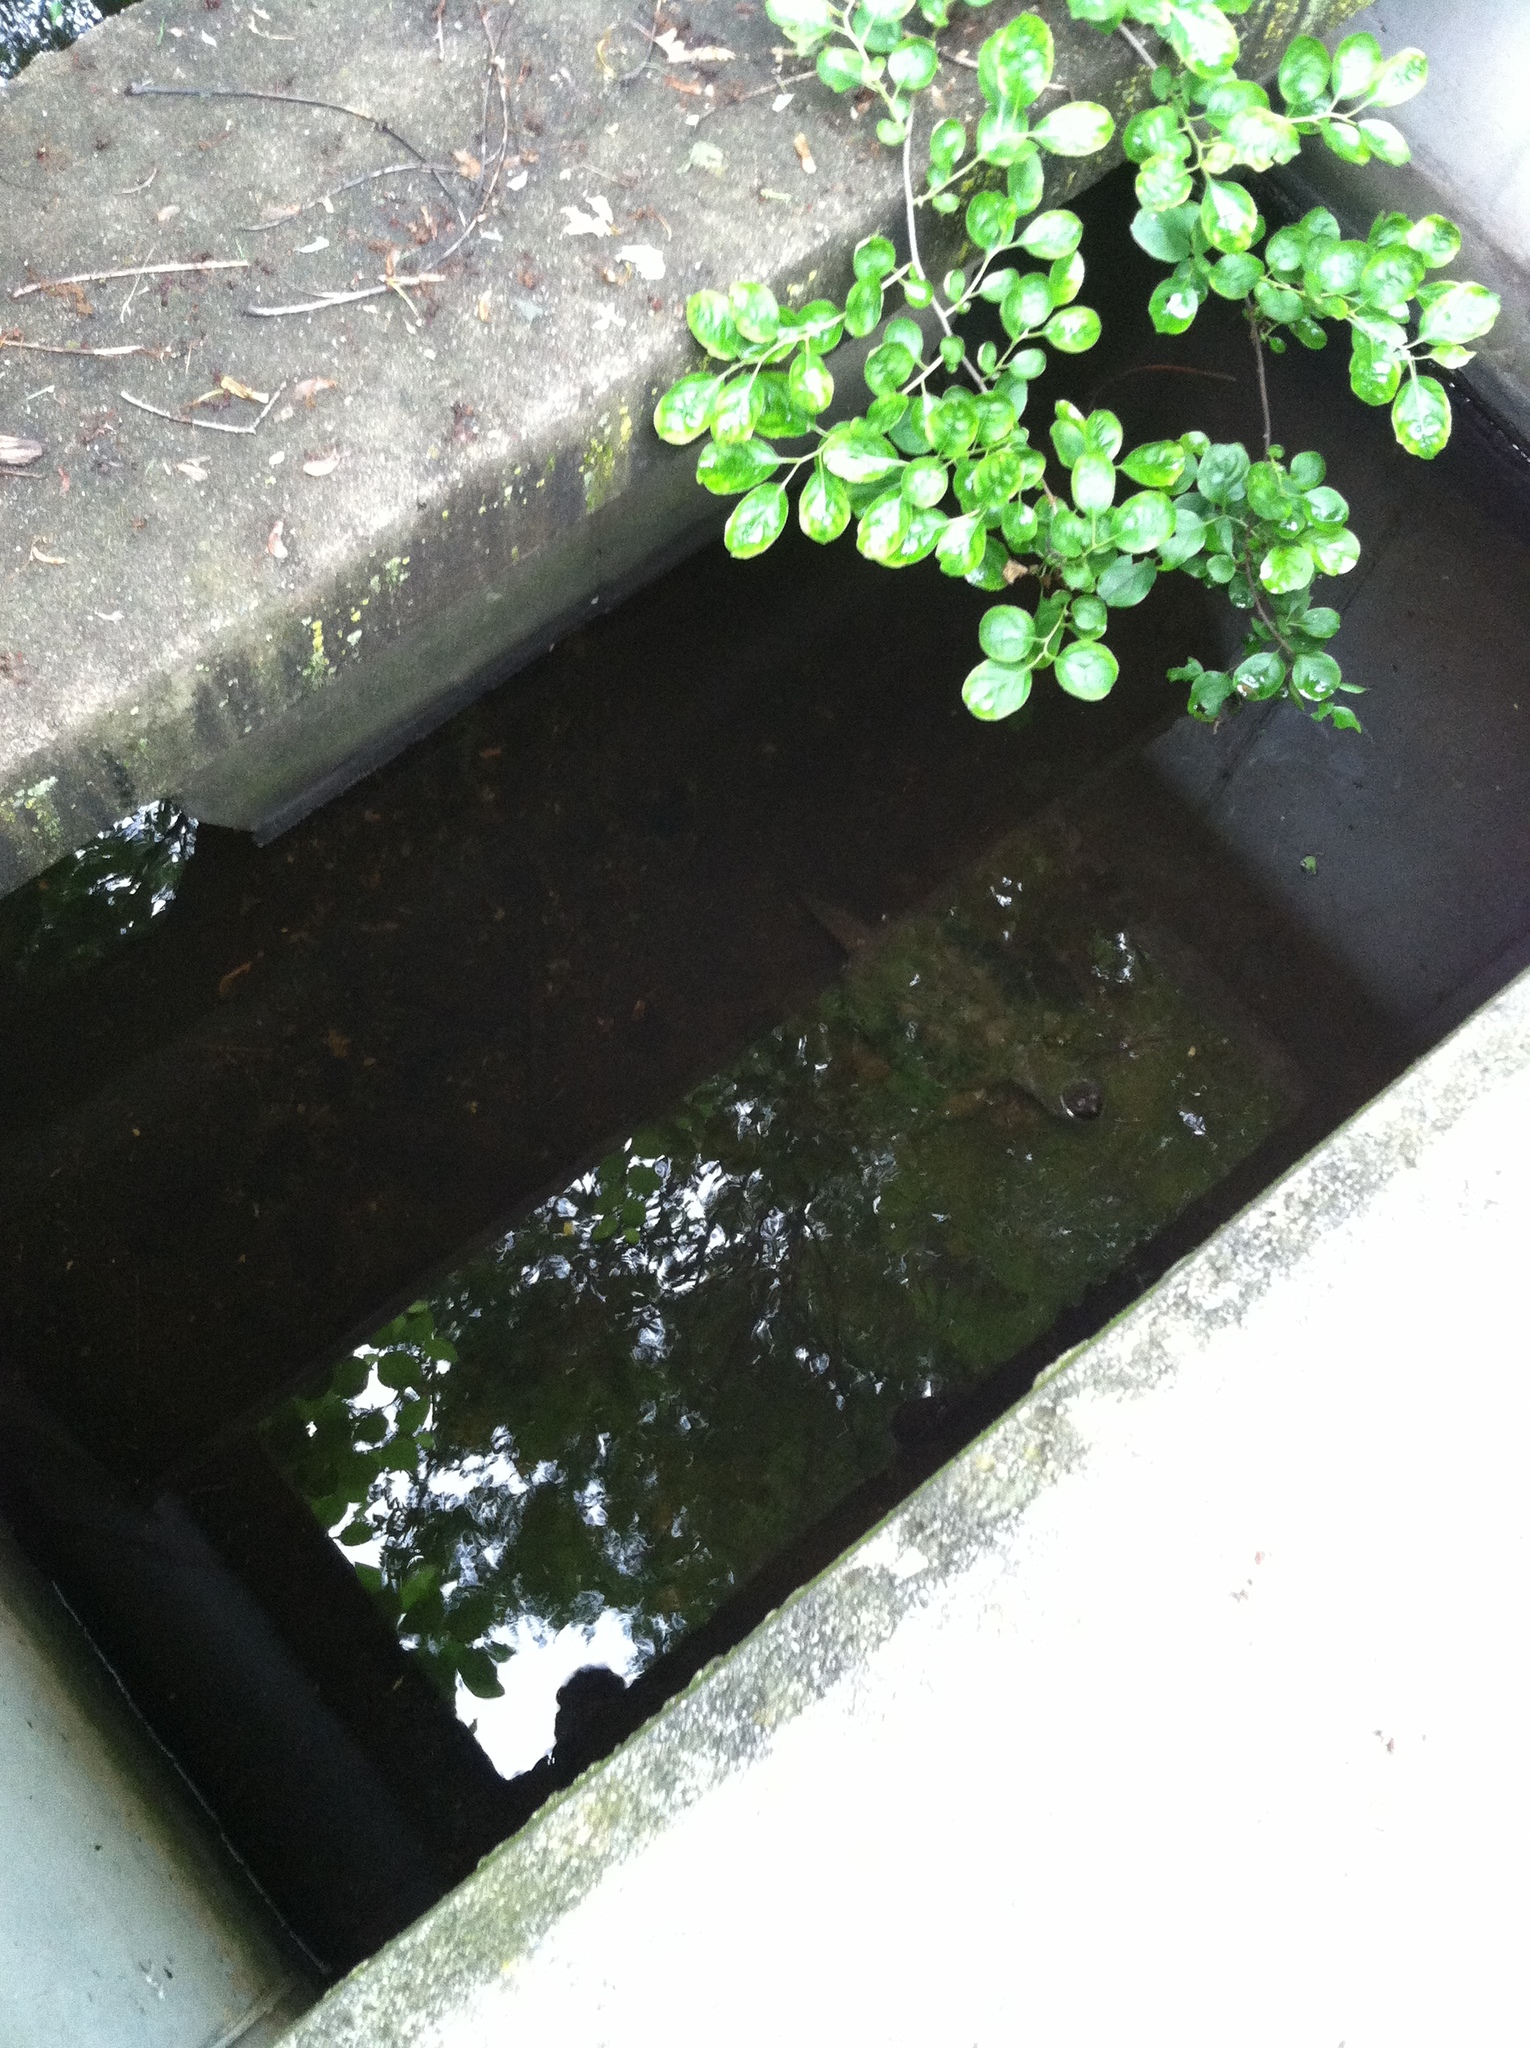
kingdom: Animalia
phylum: Chordata
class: Testudines
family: Chelydridae
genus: Chelydra
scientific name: Chelydra serpentina
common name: Common snapping turtle
